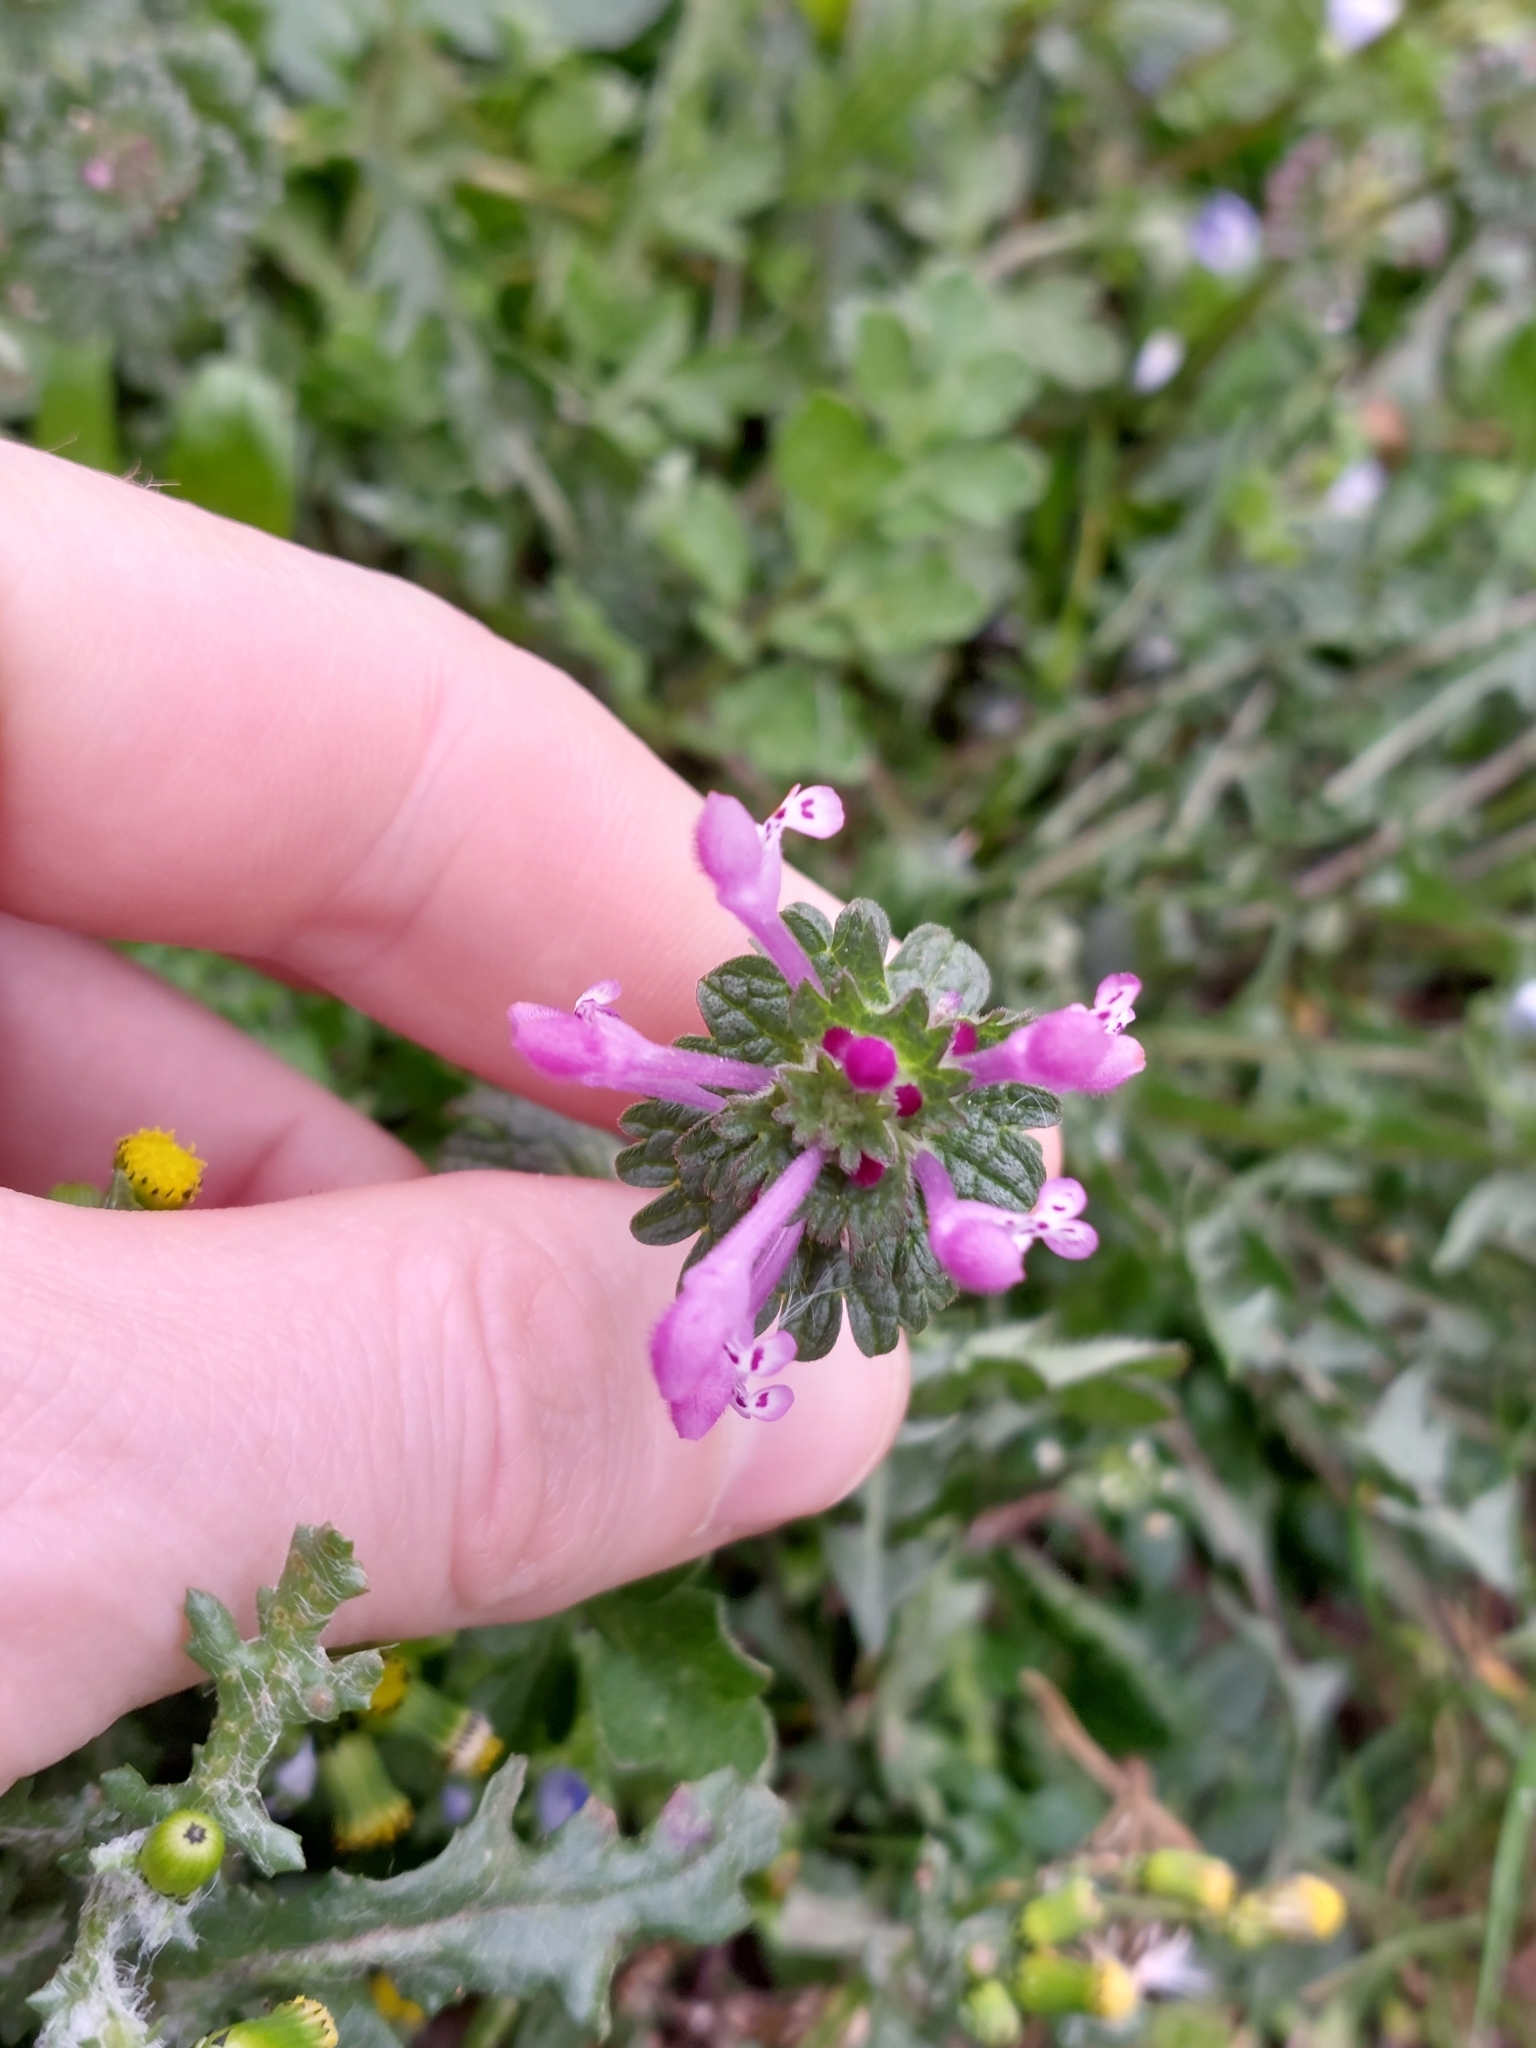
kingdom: Plantae
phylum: Tracheophyta
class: Magnoliopsida
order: Lamiales
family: Lamiaceae
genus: Lamium
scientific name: Lamium amplexicaule
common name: Henbit dead-nettle
